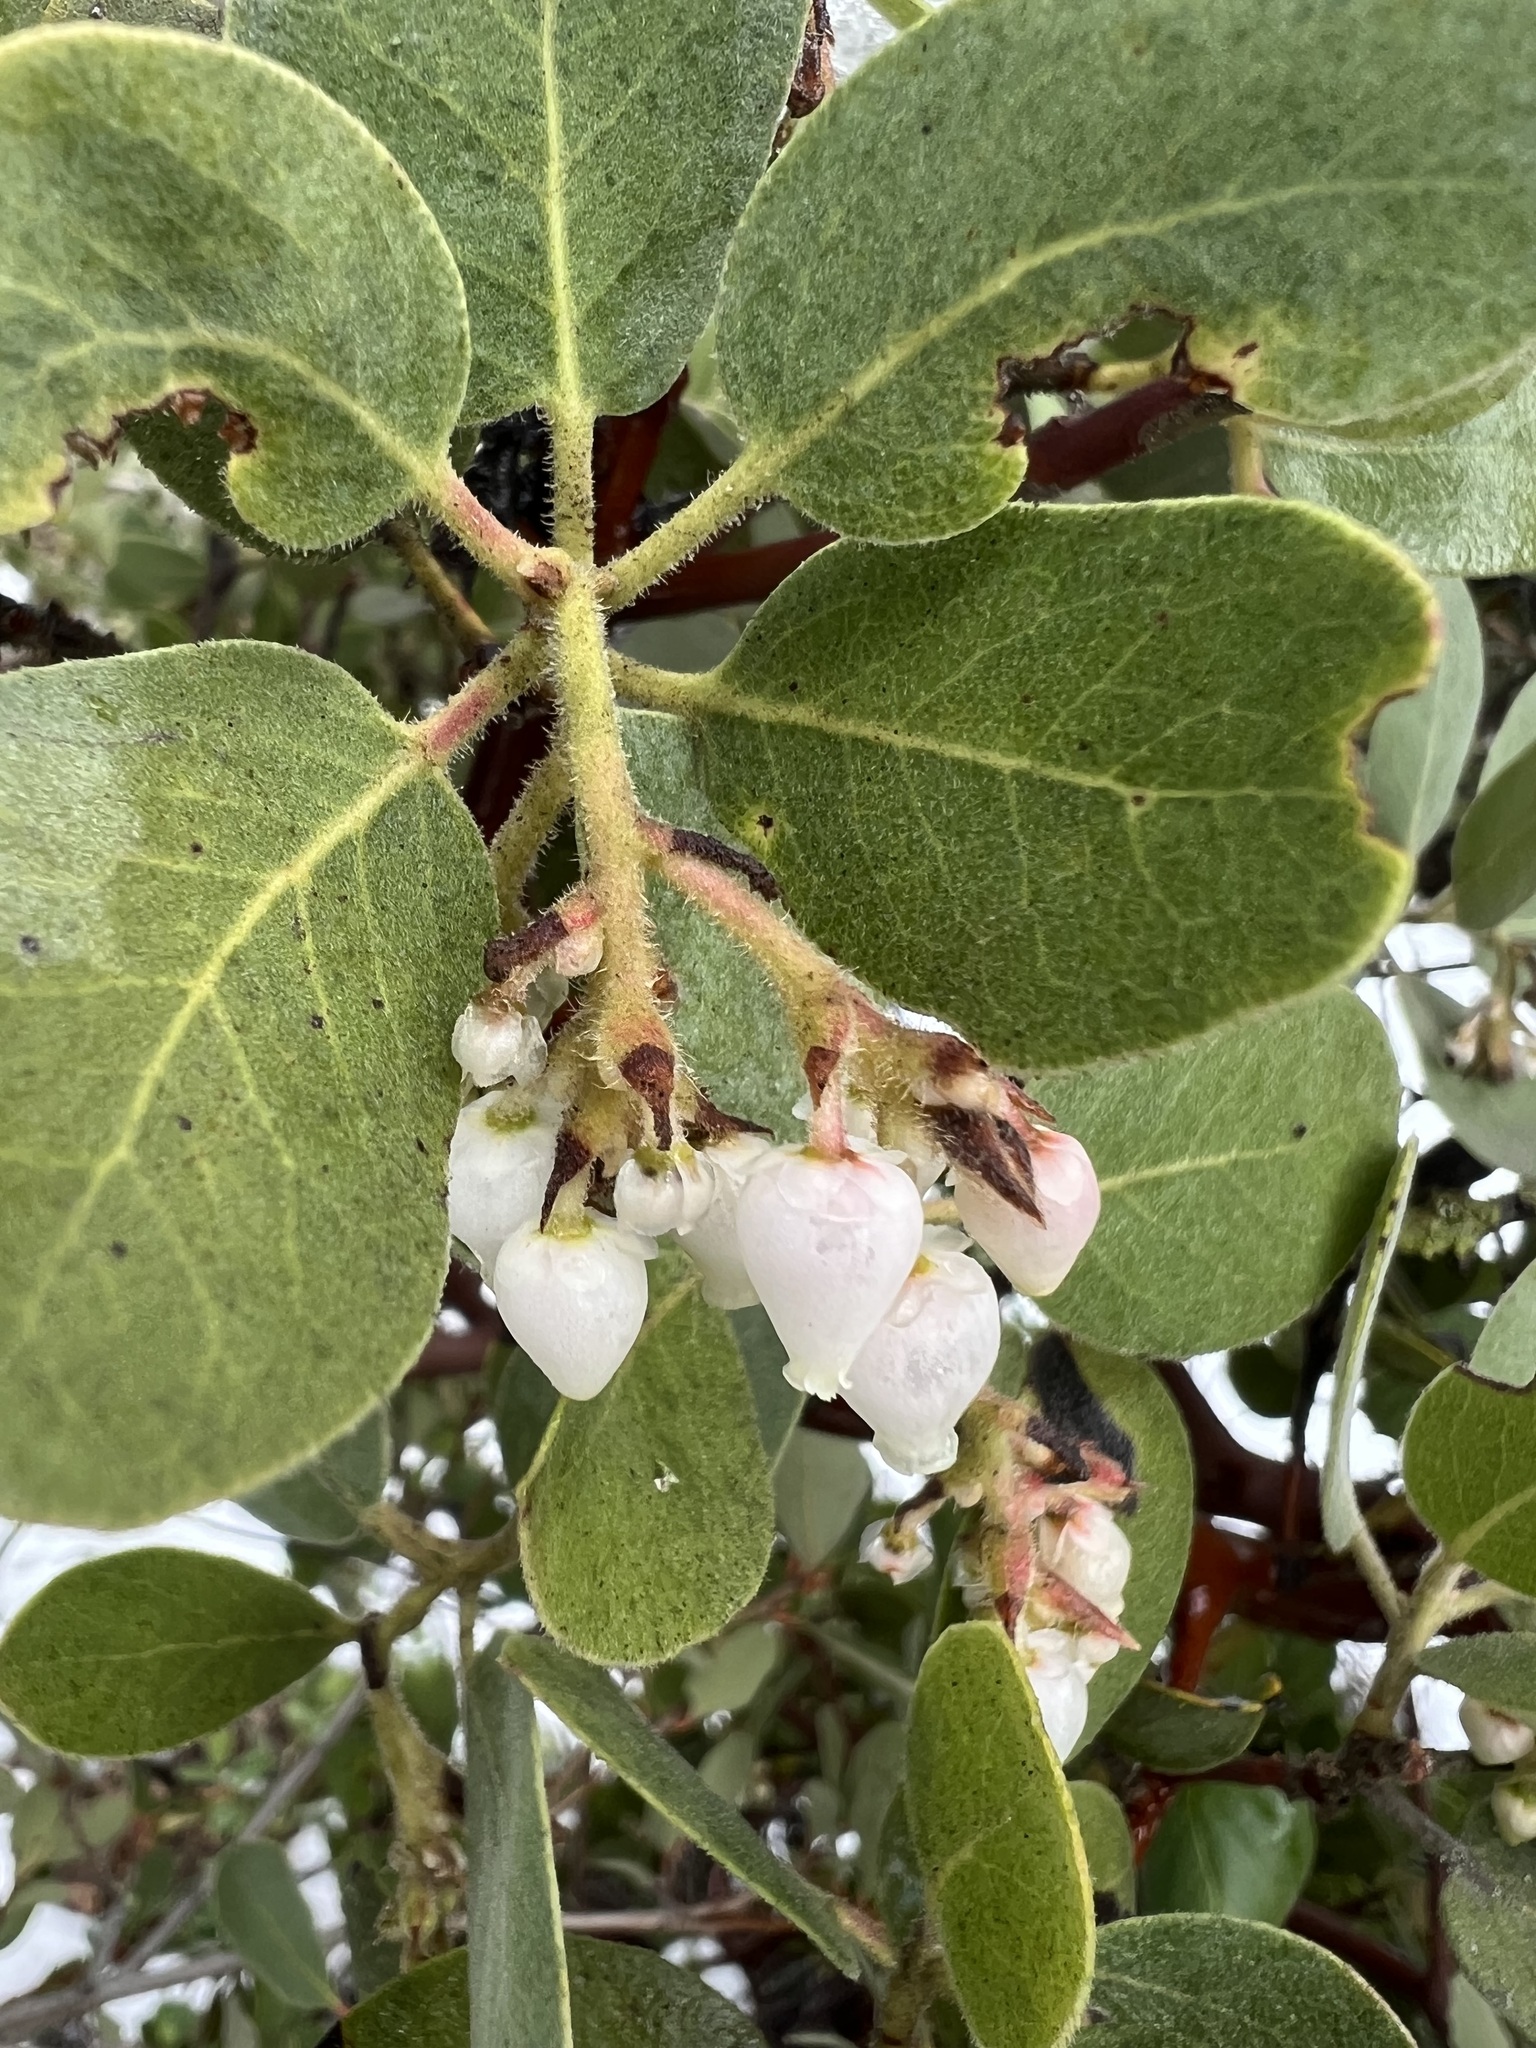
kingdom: Plantae
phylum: Tracheophyta
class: Magnoliopsida
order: Ericales
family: Ericaceae
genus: Arctostaphylos
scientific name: Arctostaphylos glandulosa
